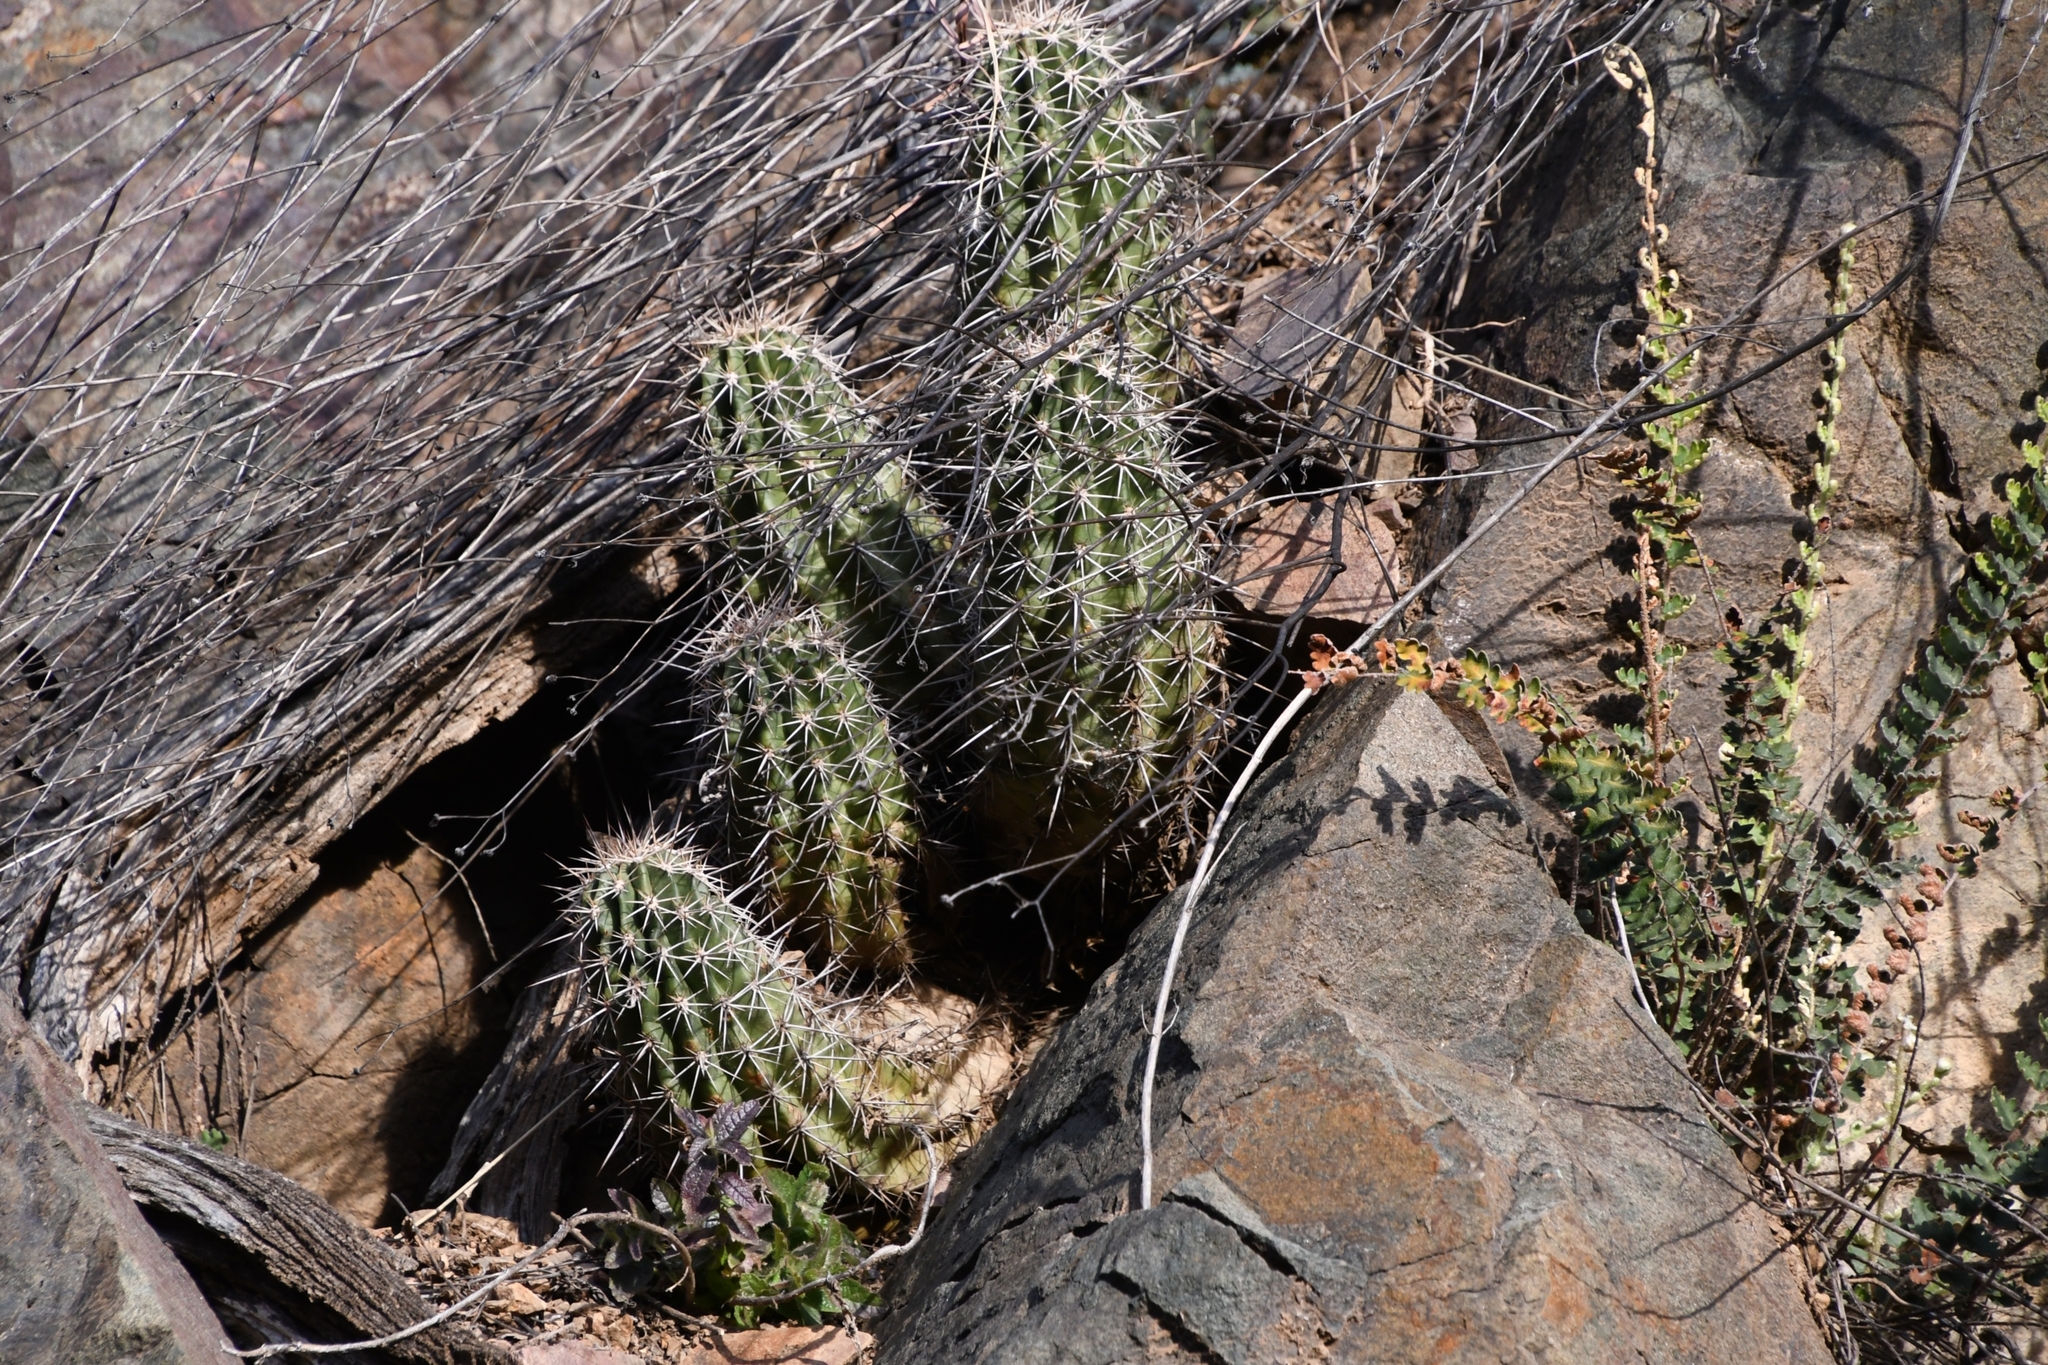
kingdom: Plantae
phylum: Tracheophyta
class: Magnoliopsida
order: Caryophyllales
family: Cactaceae
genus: Echinocereus
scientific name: Echinocereus fasciculatus
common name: Bundle hedgehog
